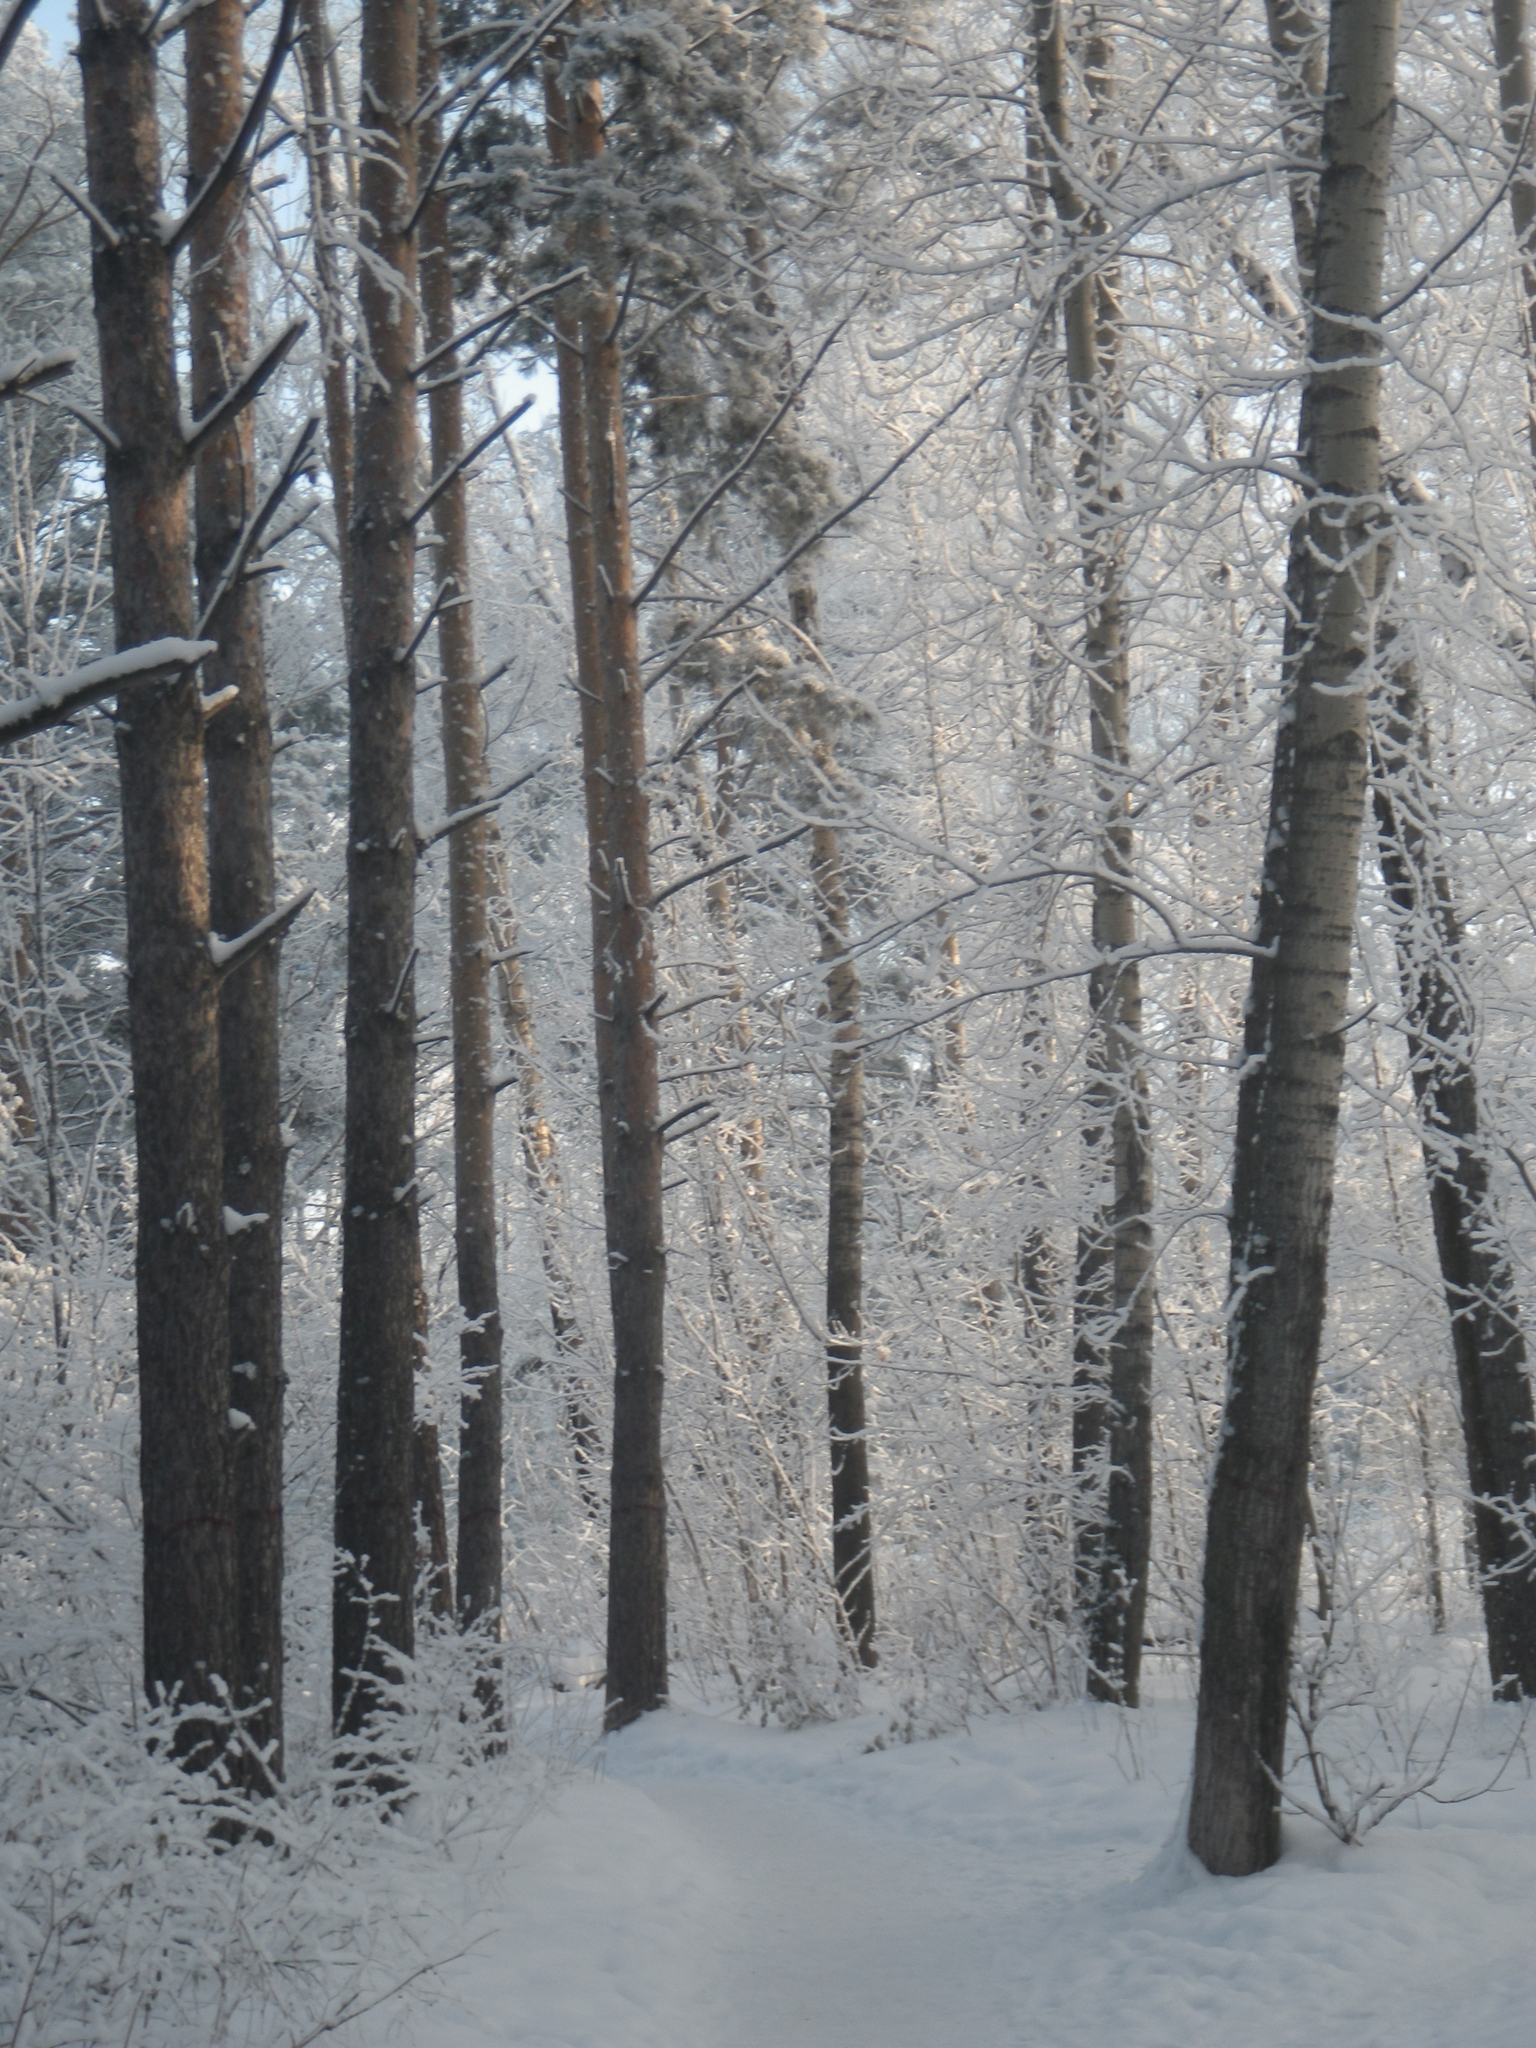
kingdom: Plantae
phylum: Tracheophyta
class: Pinopsida
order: Pinales
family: Pinaceae
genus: Pinus
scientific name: Pinus sylvestris
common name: Scots pine
